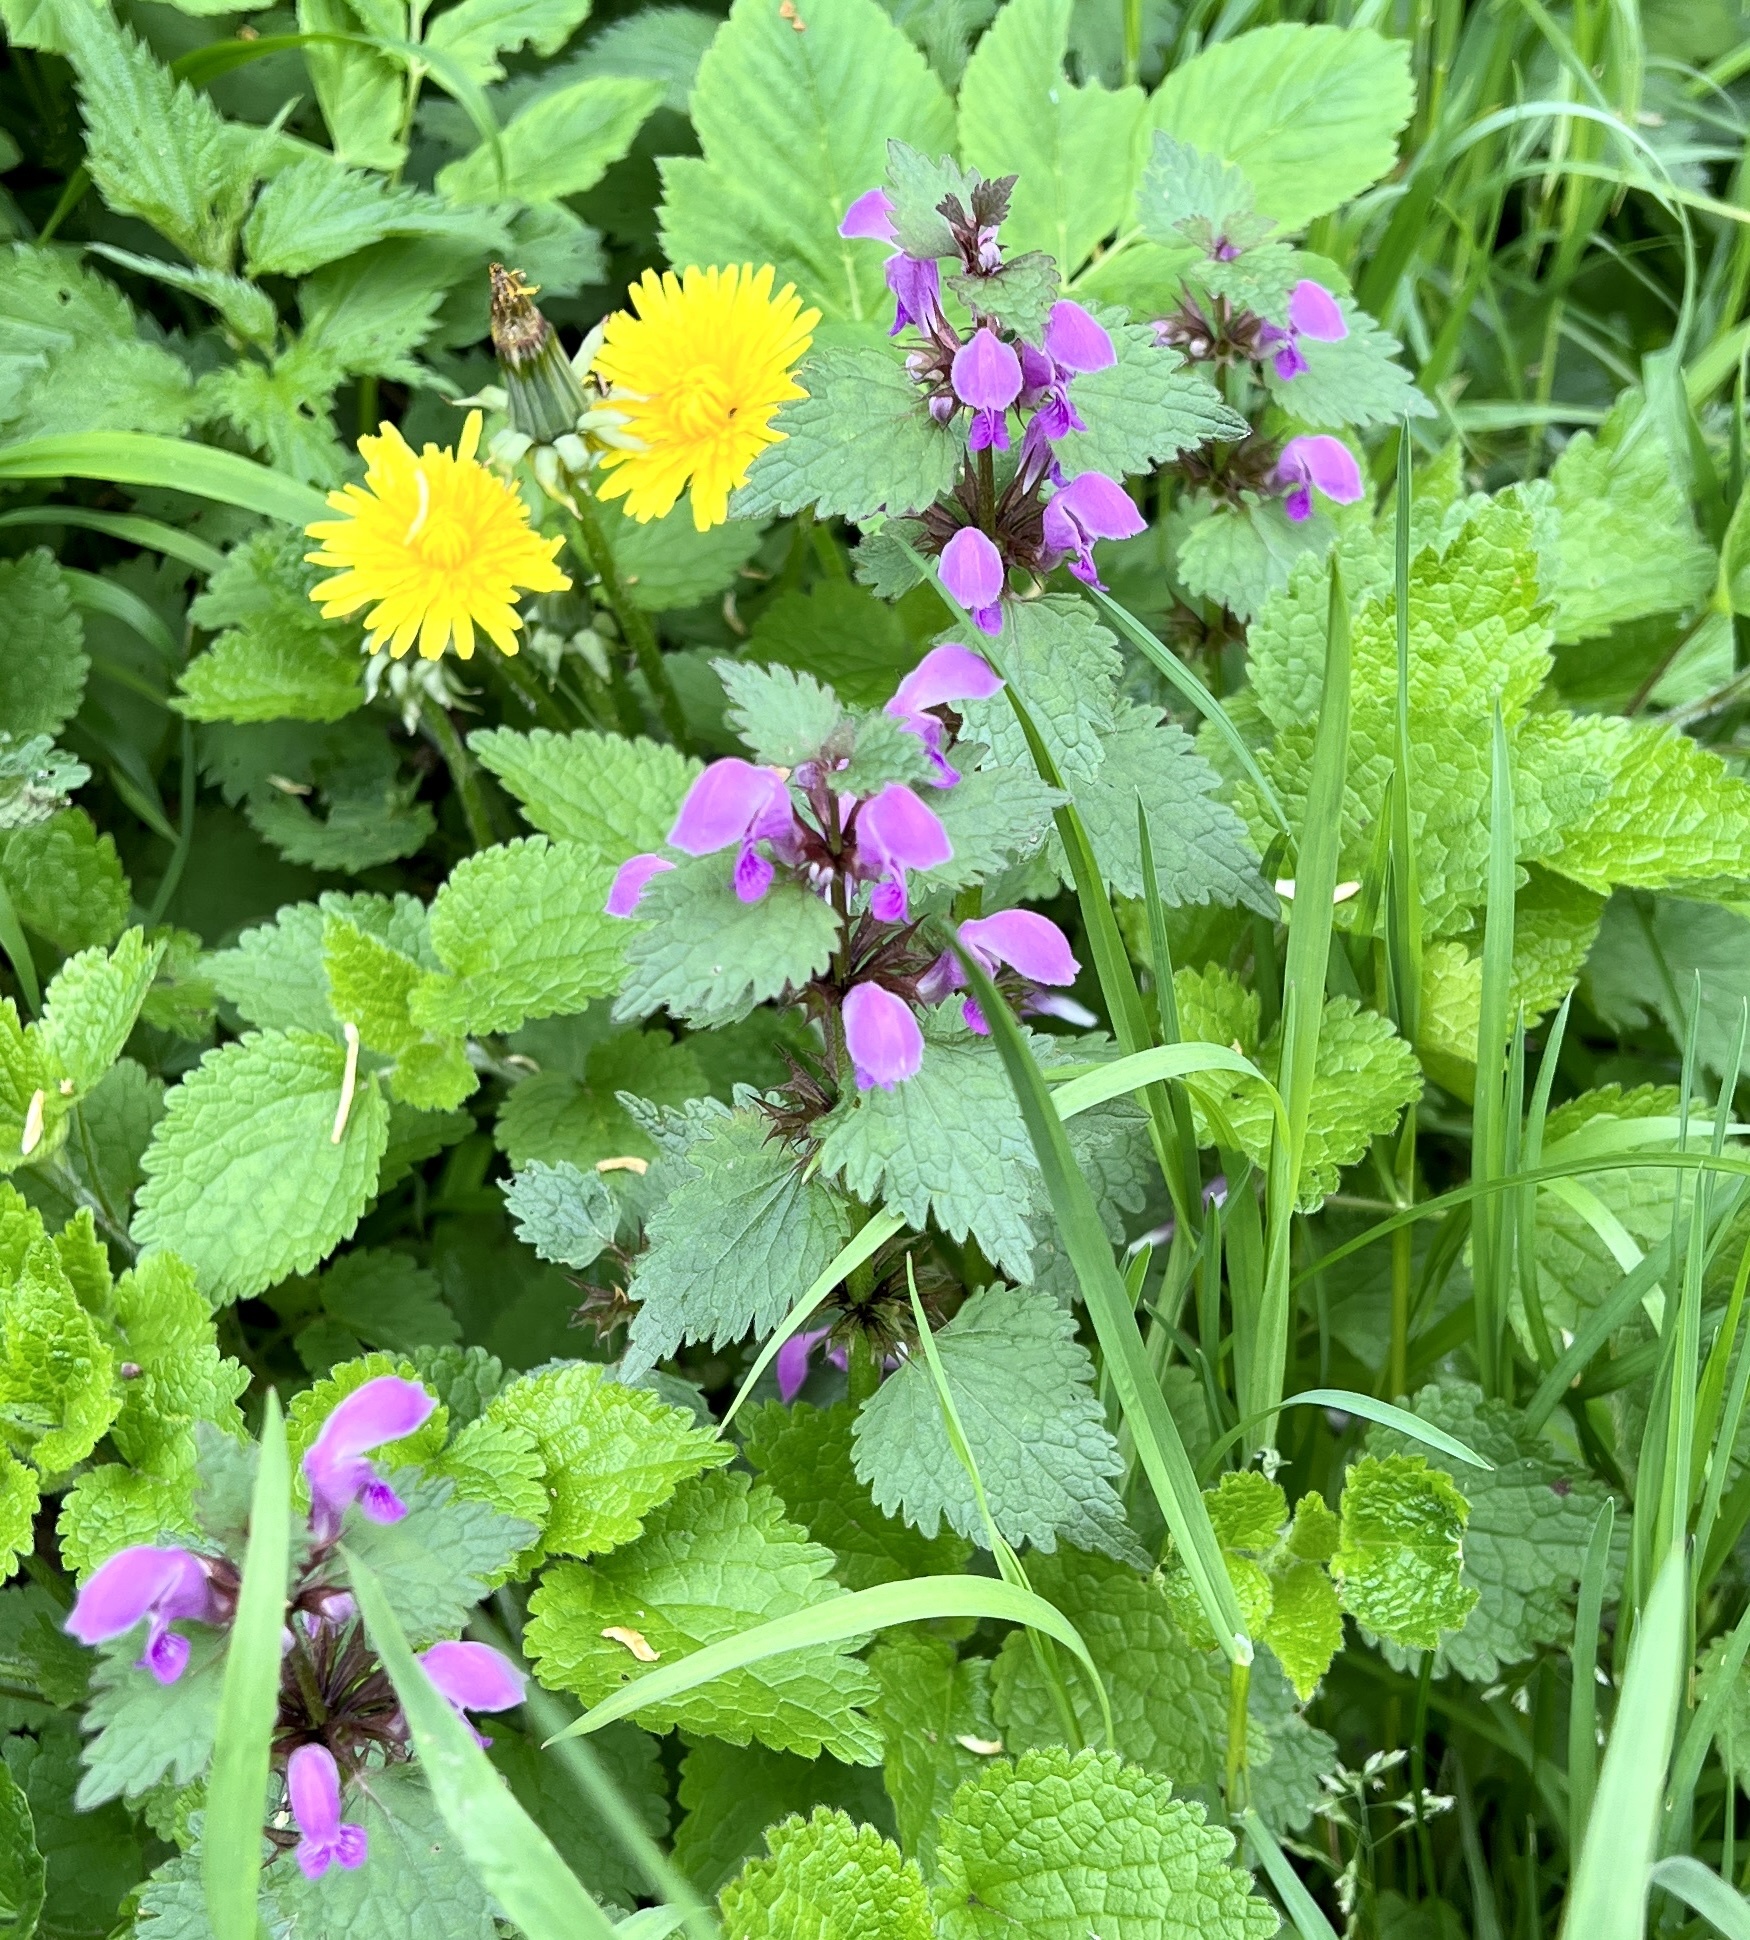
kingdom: Plantae
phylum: Tracheophyta
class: Magnoliopsida
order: Lamiales
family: Lamiaceae
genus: Lamium
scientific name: Lamium maculatum
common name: Spotted dead-nettle
